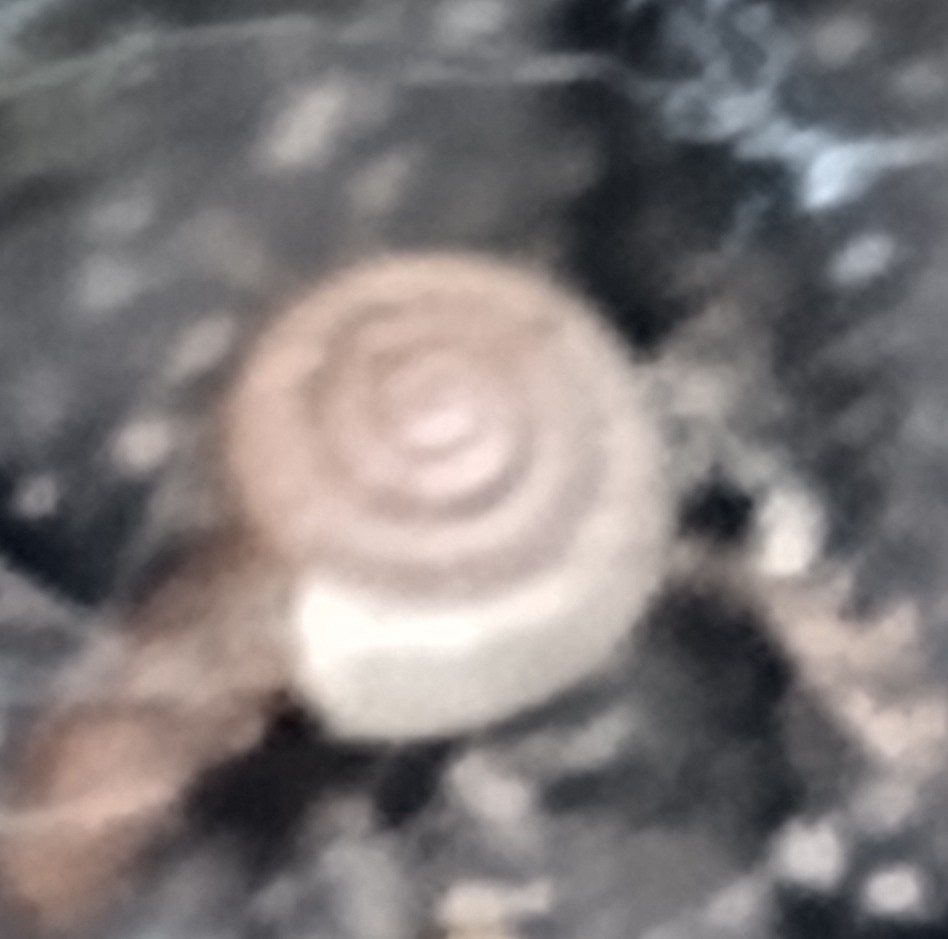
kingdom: Animalia
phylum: Mollusca
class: Gastropoda
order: Stylommatophora
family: Polygyridae
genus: Polygyra
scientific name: Polygyra cereolus
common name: Southern flatcone snail
